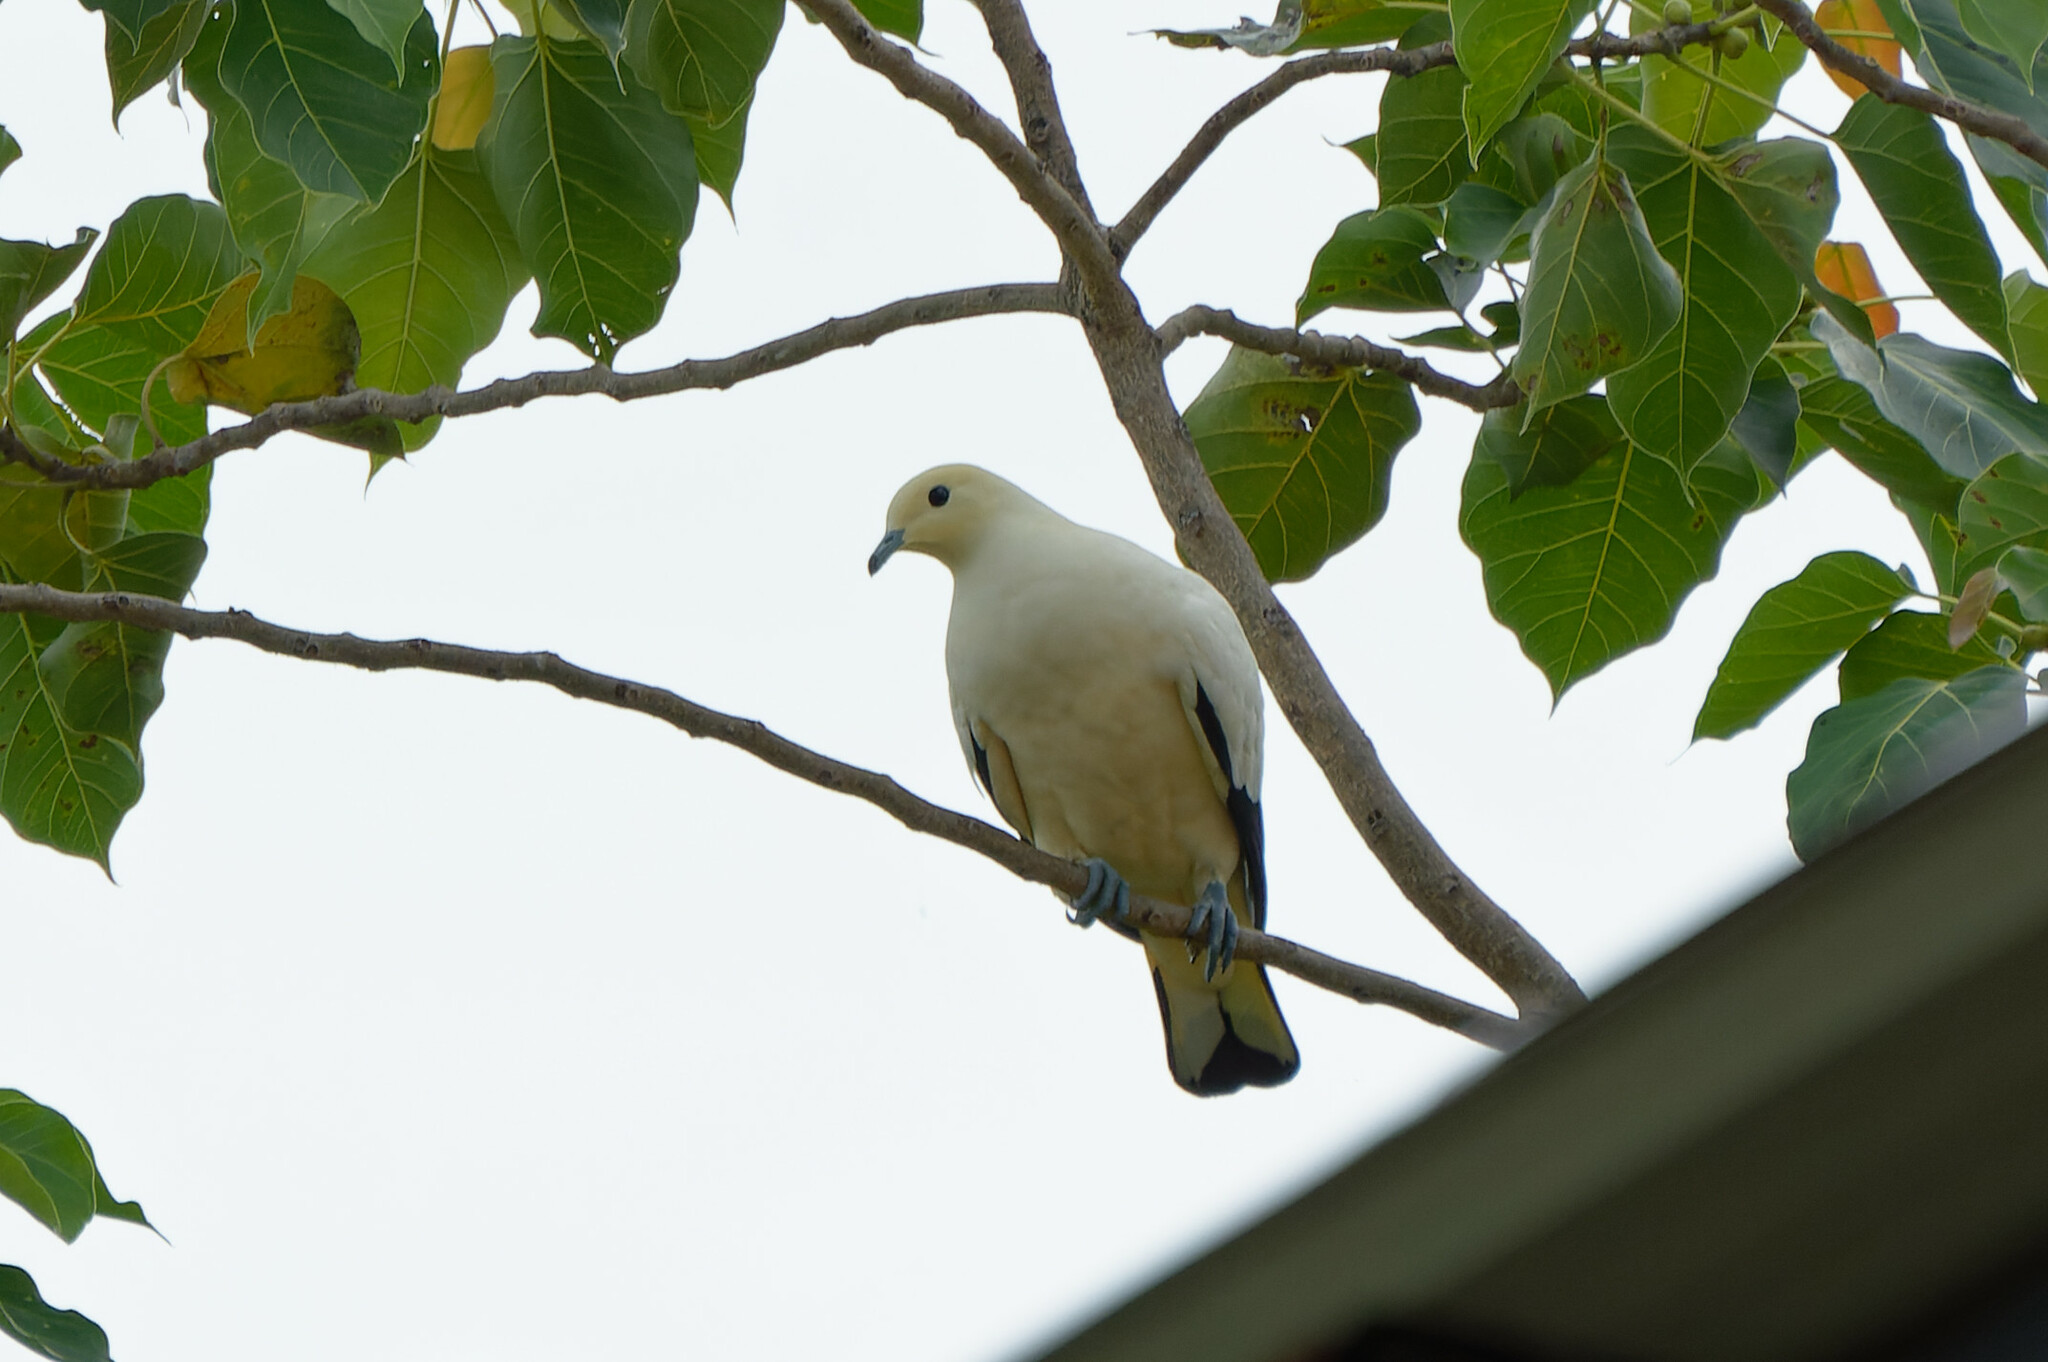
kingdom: Animalia
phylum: Chordata
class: Aves
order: Columbiformes
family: Columbidae
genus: Ducula
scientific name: Ducula bicolor
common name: Pied imperial pigeon
